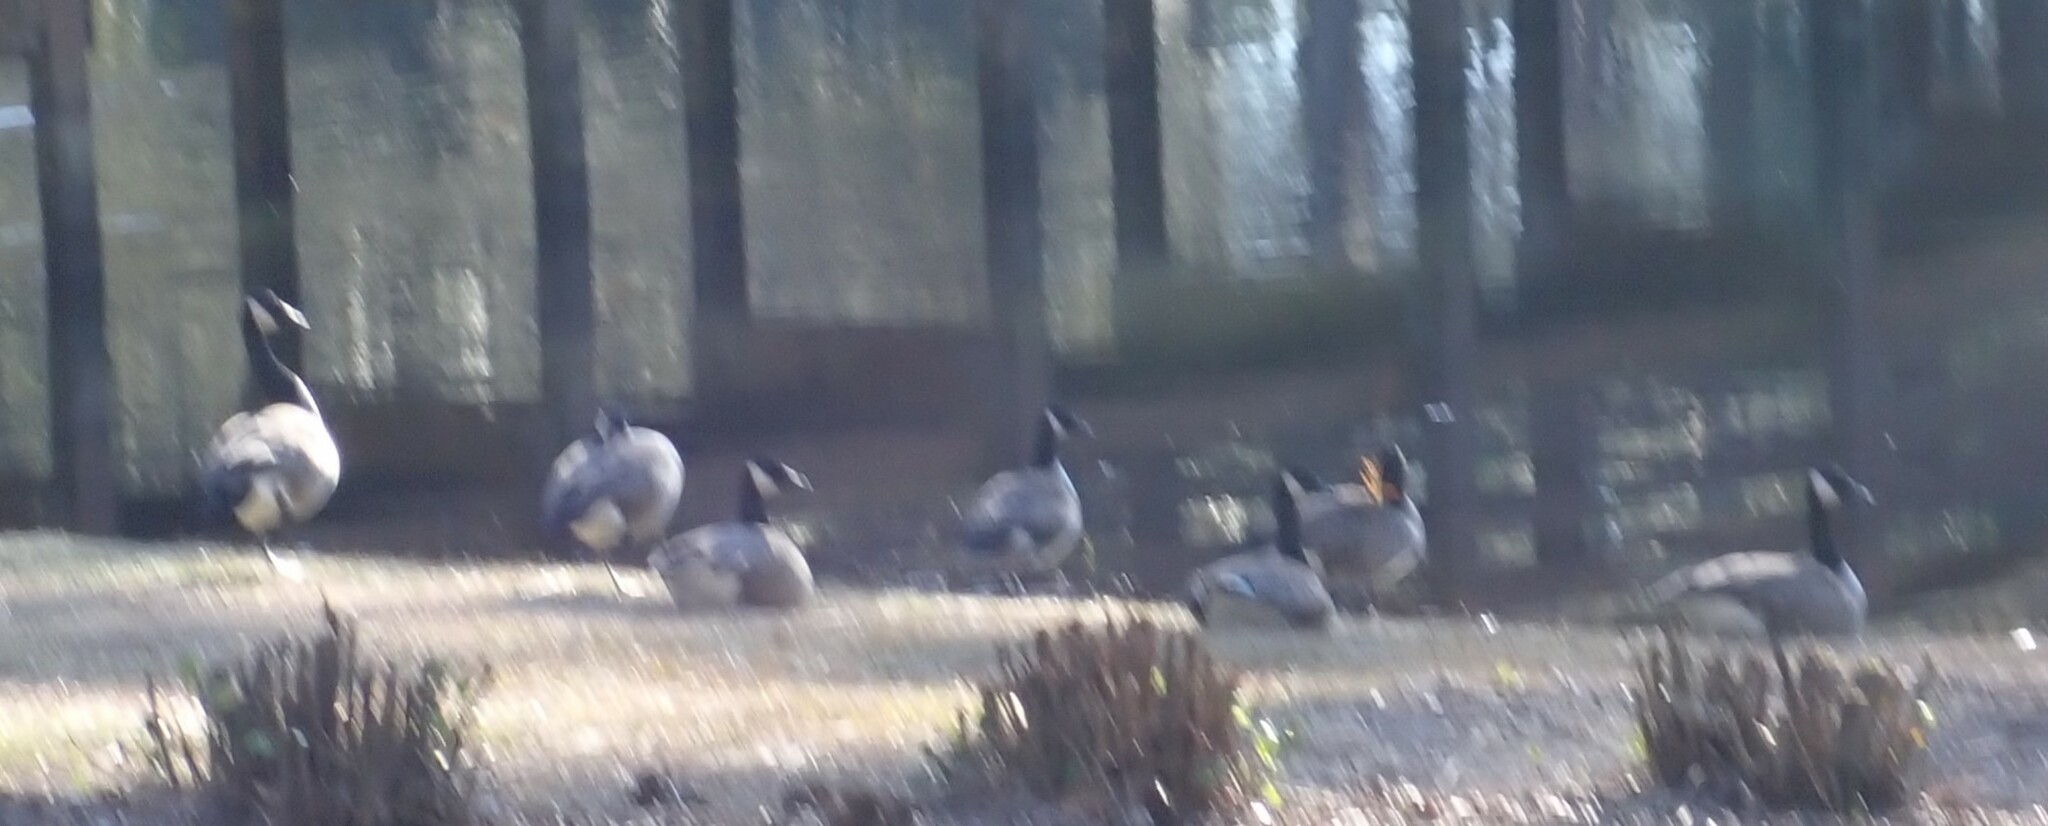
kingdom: Animalia
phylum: Chordata
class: Aves
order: Anseriformes
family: Anatidae
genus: Branta
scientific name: Branta canadensis
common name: Canada goose
